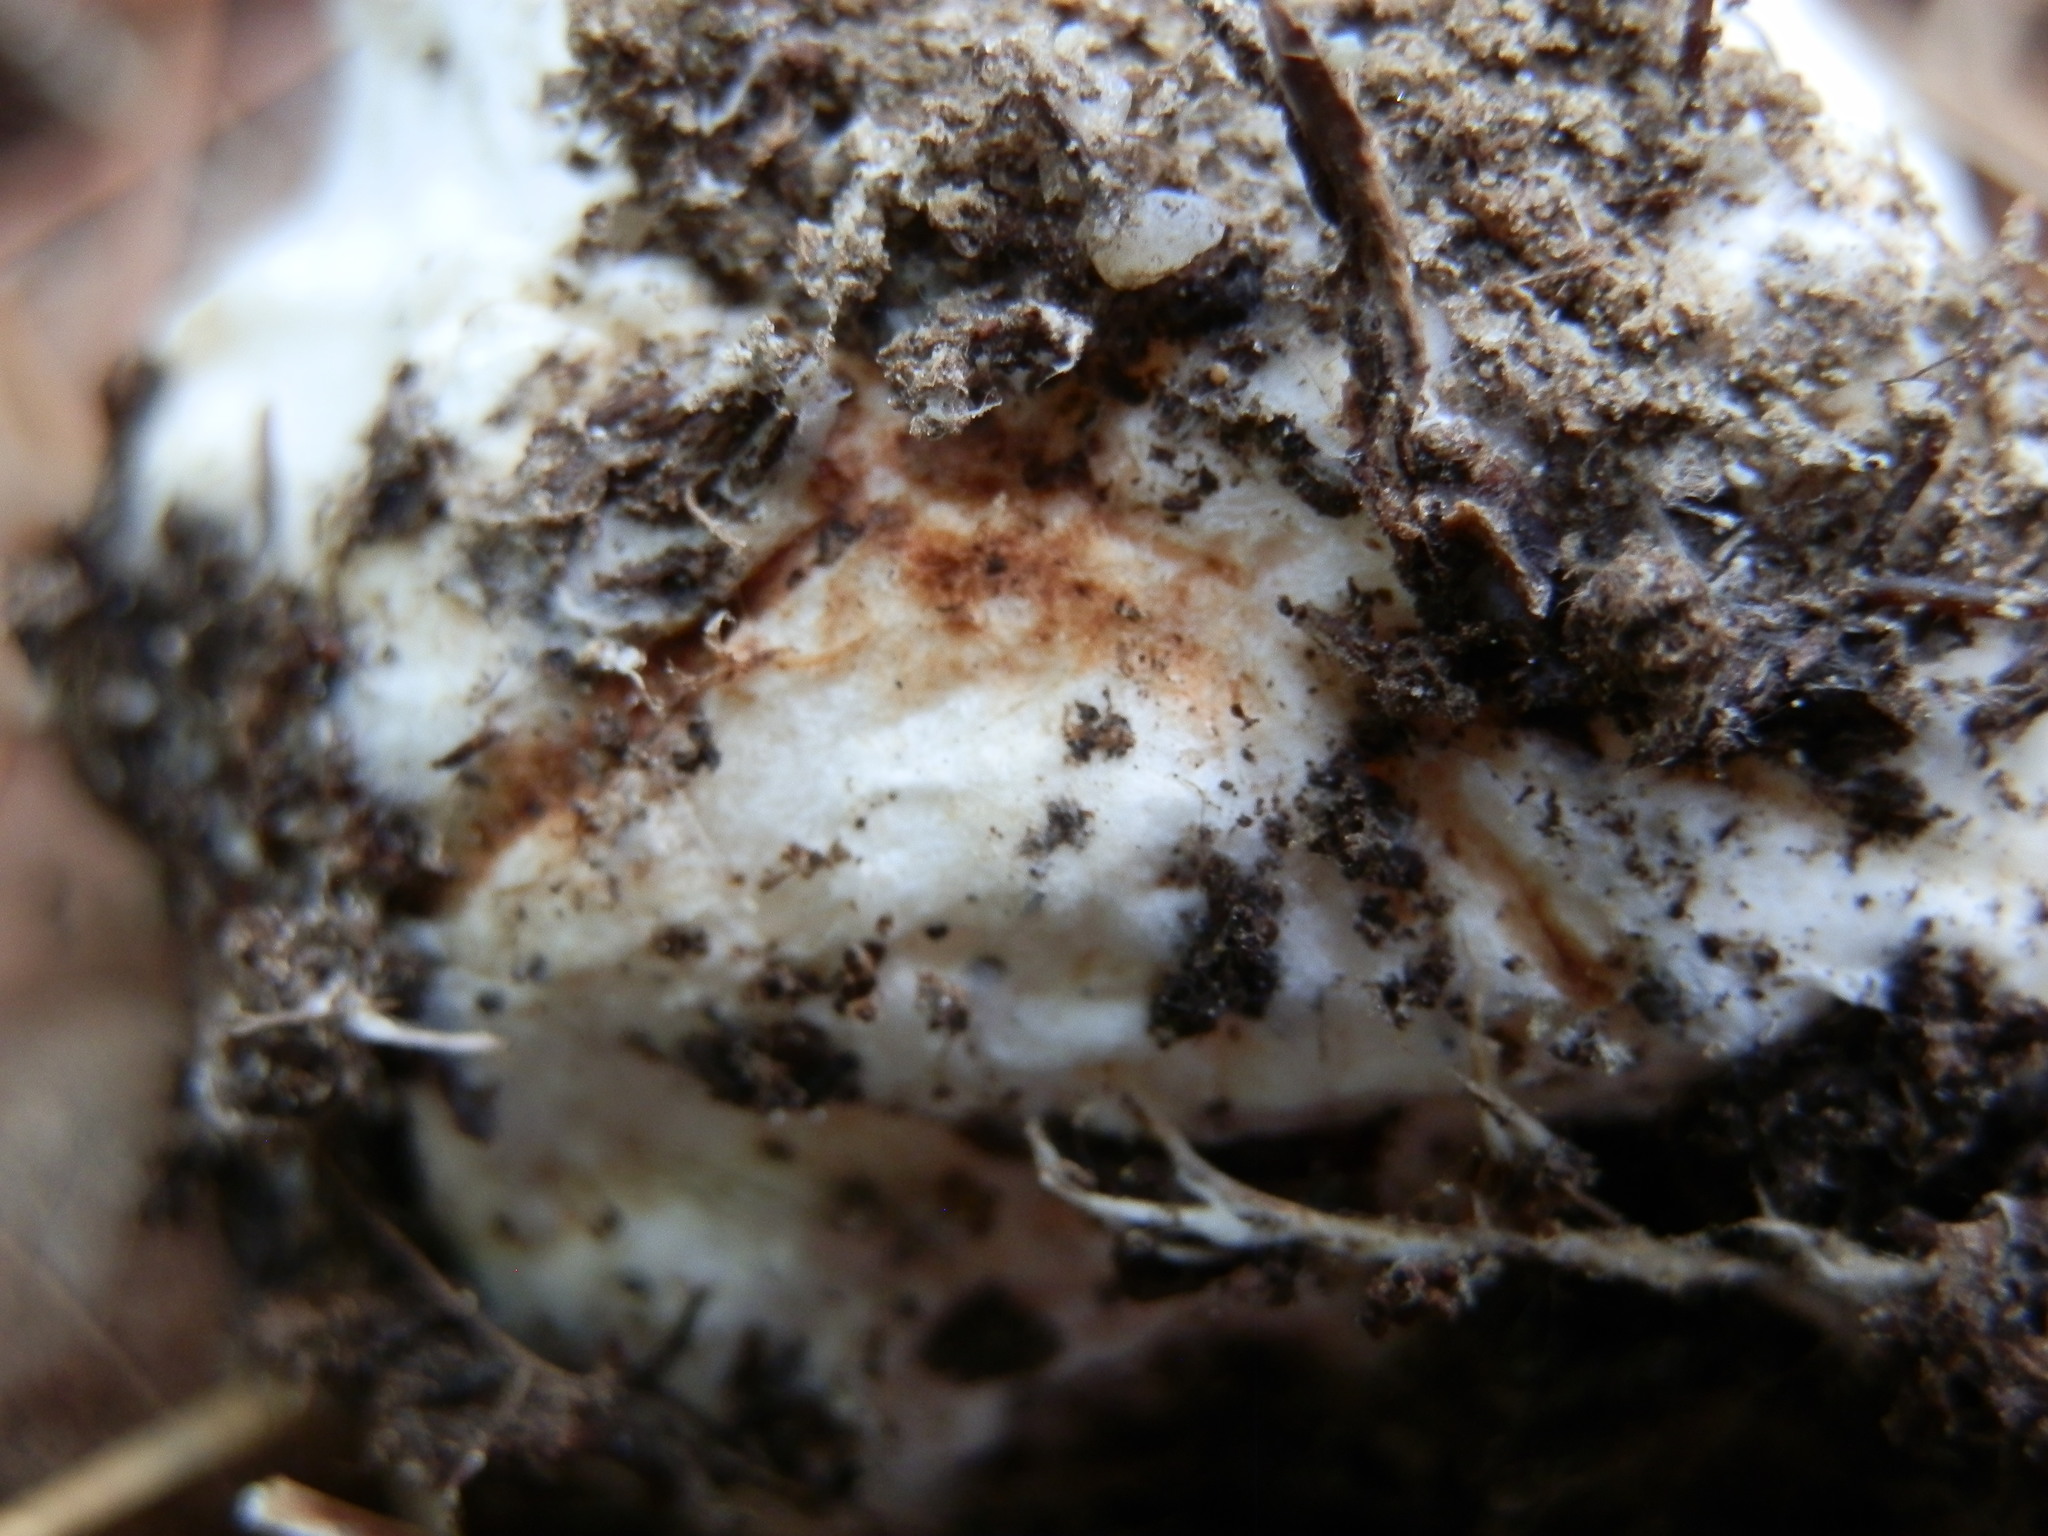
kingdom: Fungi
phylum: Basidiomycota
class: Agaricomycetes
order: Agaricales
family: Amanitaceae
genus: Amanita
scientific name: Amanita brunnescens
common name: Brown american star-footed amanita
